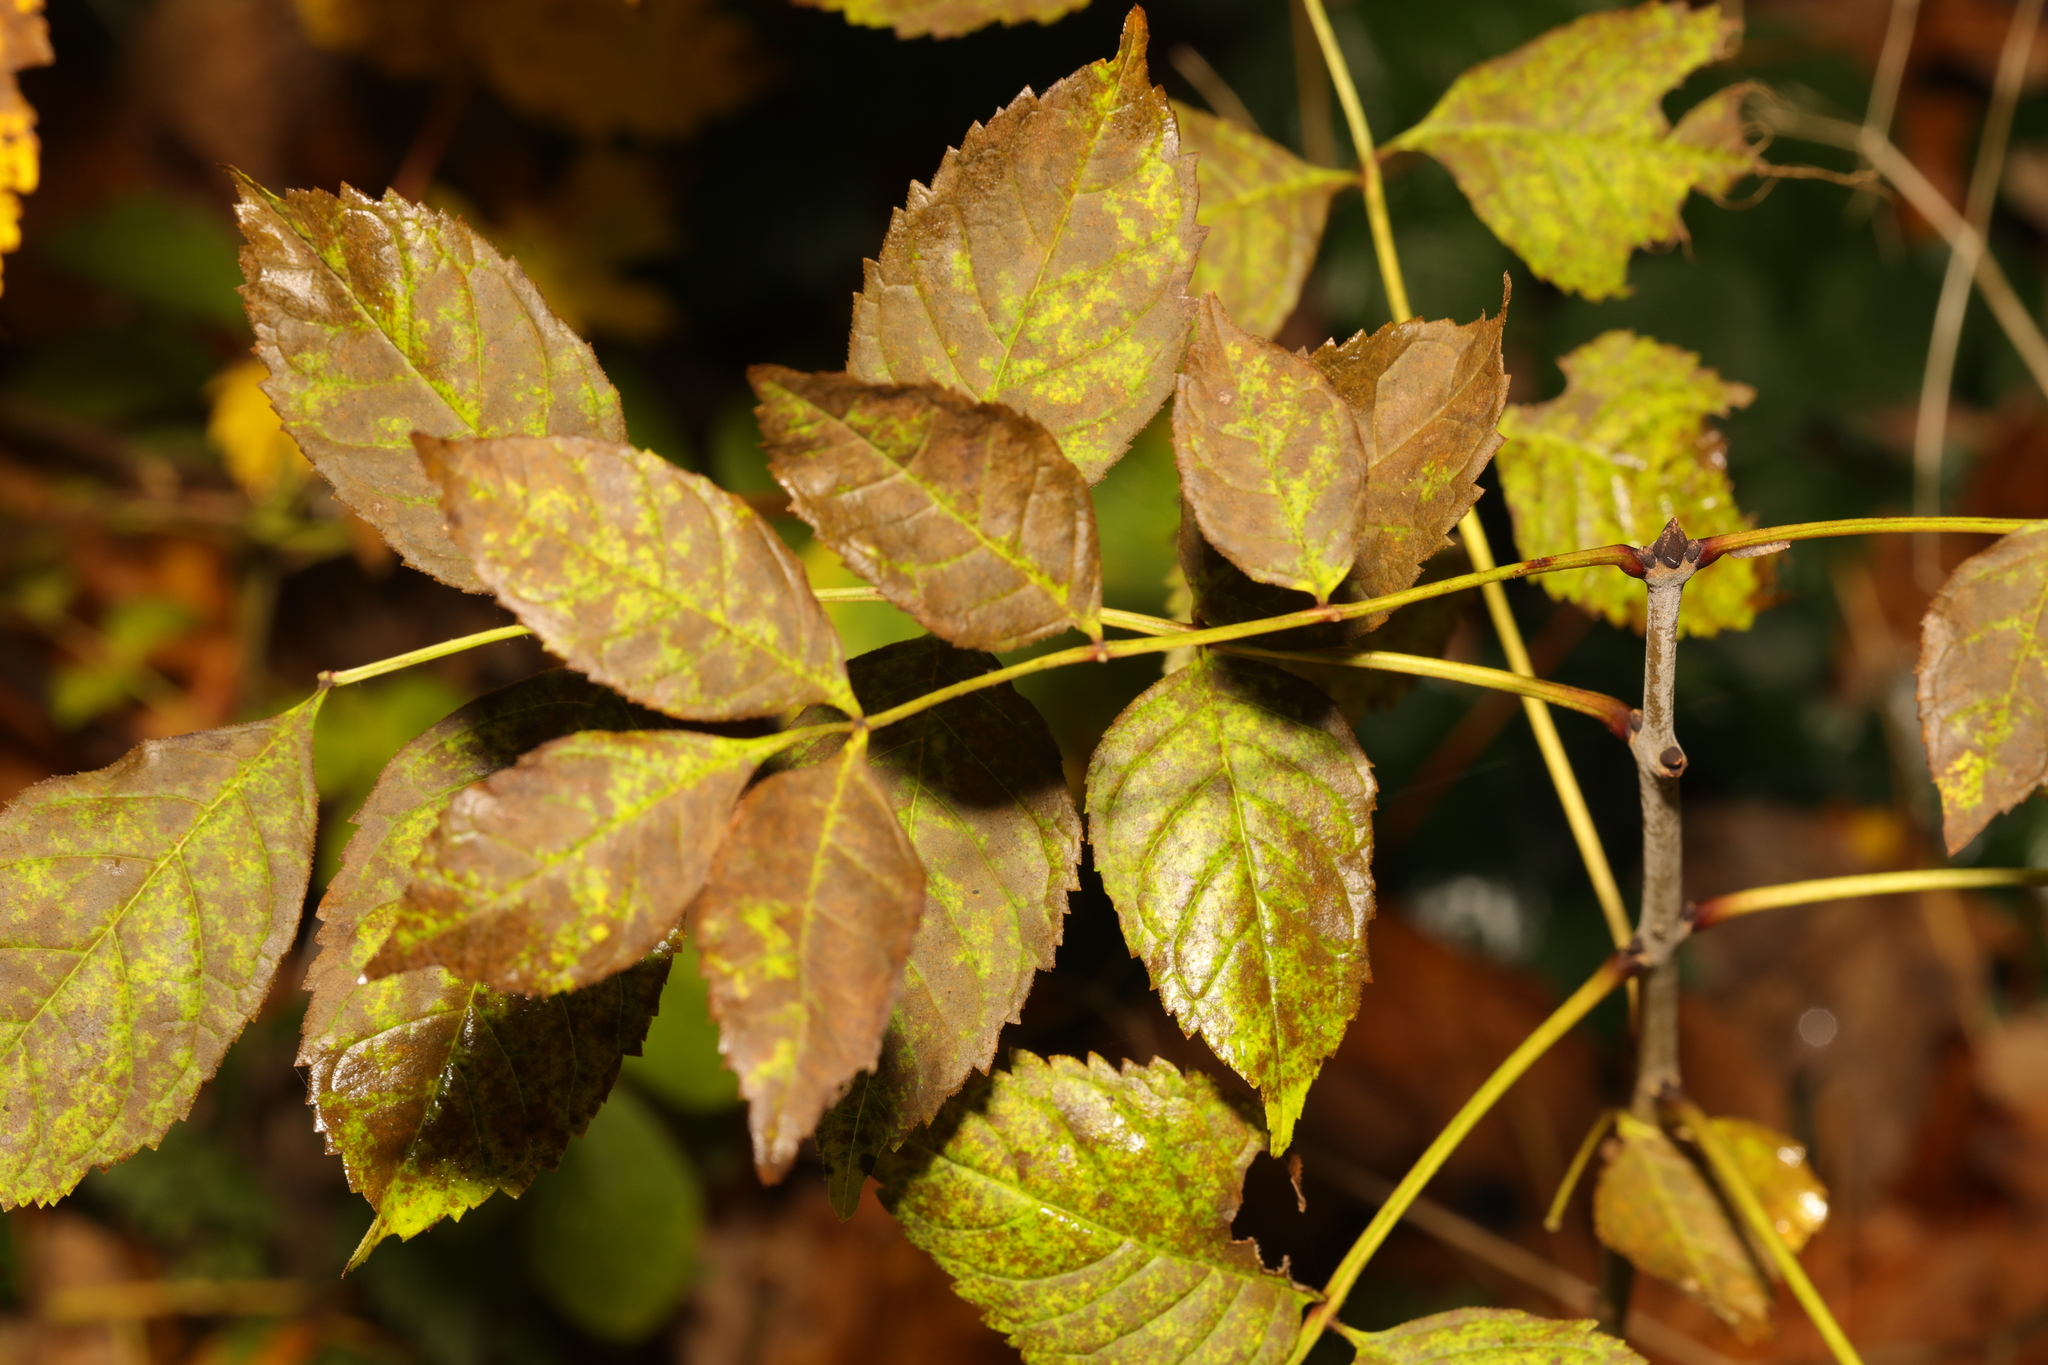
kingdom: Plantae
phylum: Tracheophyta
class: Magnoliopsida
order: Lamiales
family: Oleaceae
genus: Fraxinus
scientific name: Fraxinus excelsior
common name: European ash
